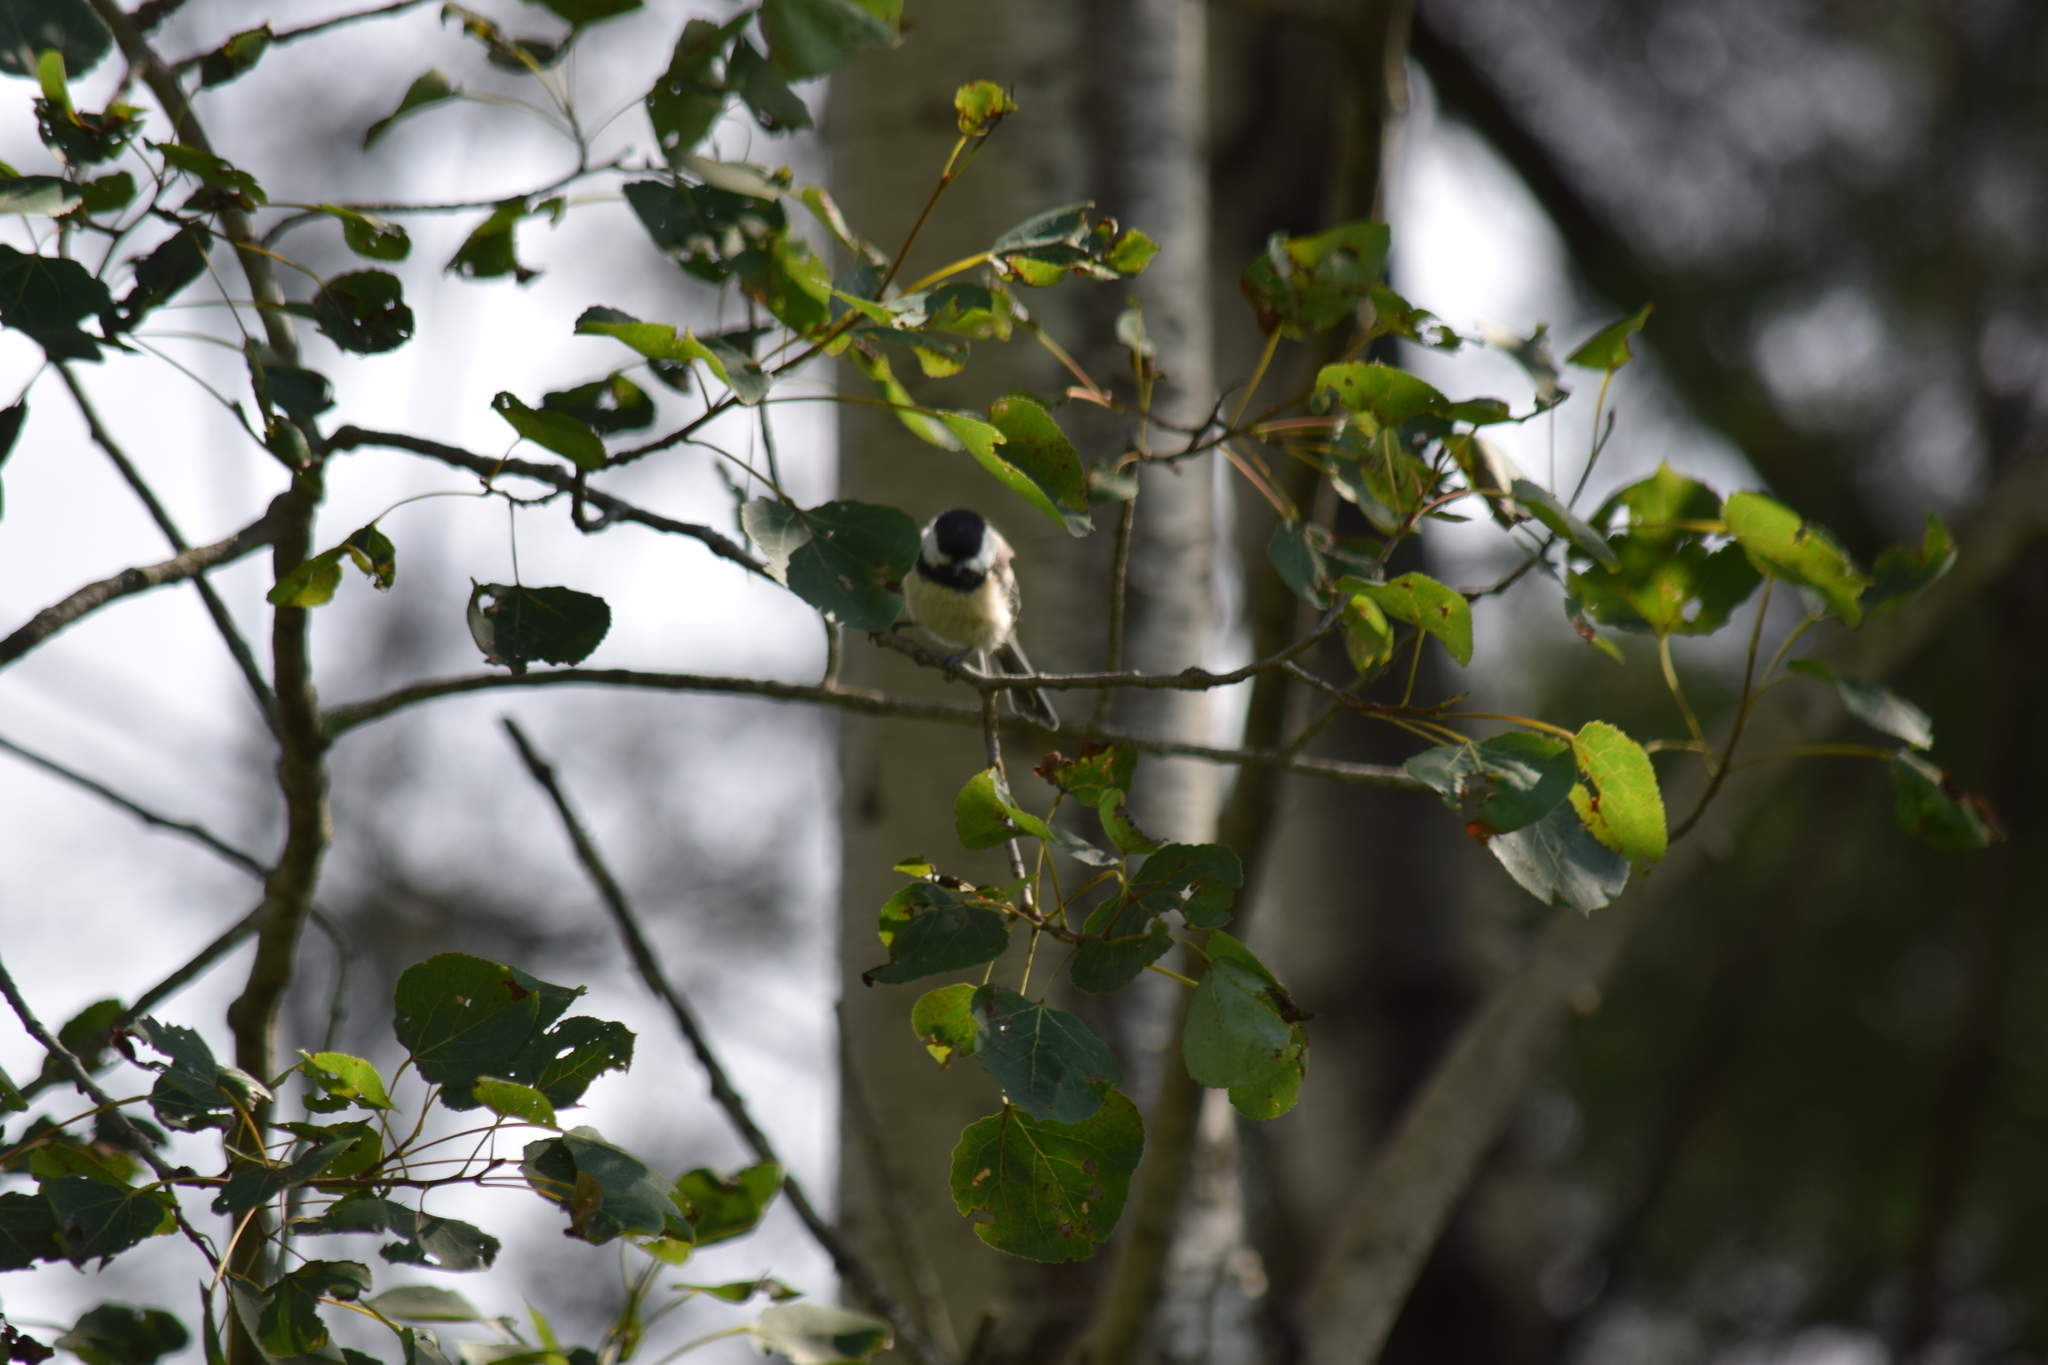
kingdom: Animalia
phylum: Chordata
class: Aves
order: Passeriformes
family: Paridae
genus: Poecile
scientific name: Poecile atricapillus
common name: Black-capped chickadee
